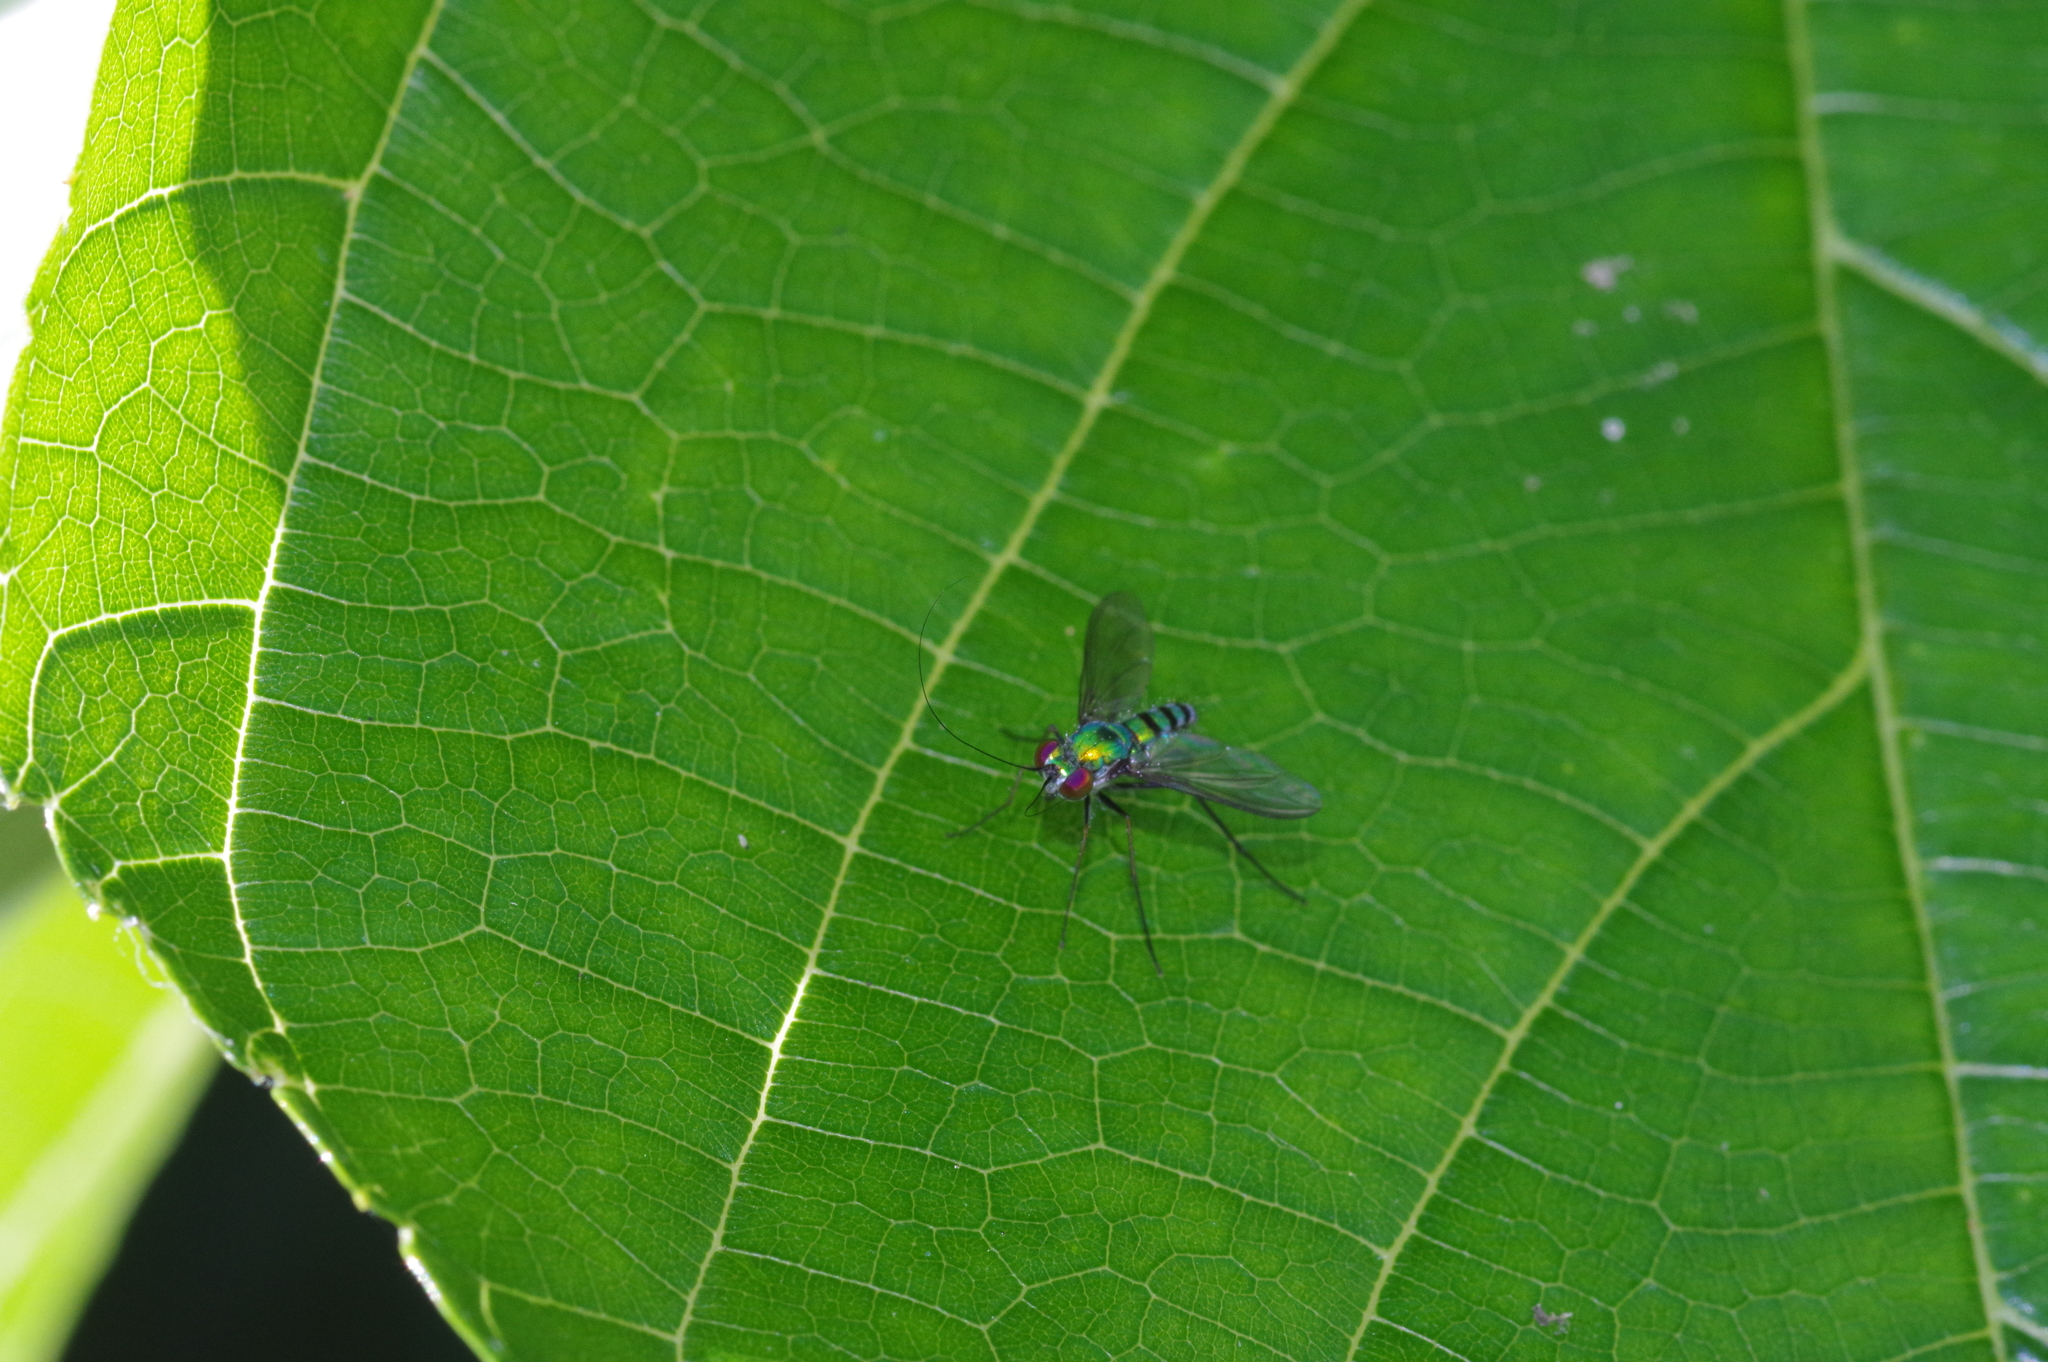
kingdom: Animalia
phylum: Arthropoda
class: Insecta
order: Diptera
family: Dolichopodidae
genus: Chrysosoma
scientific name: Chrysosoma crinicorne
